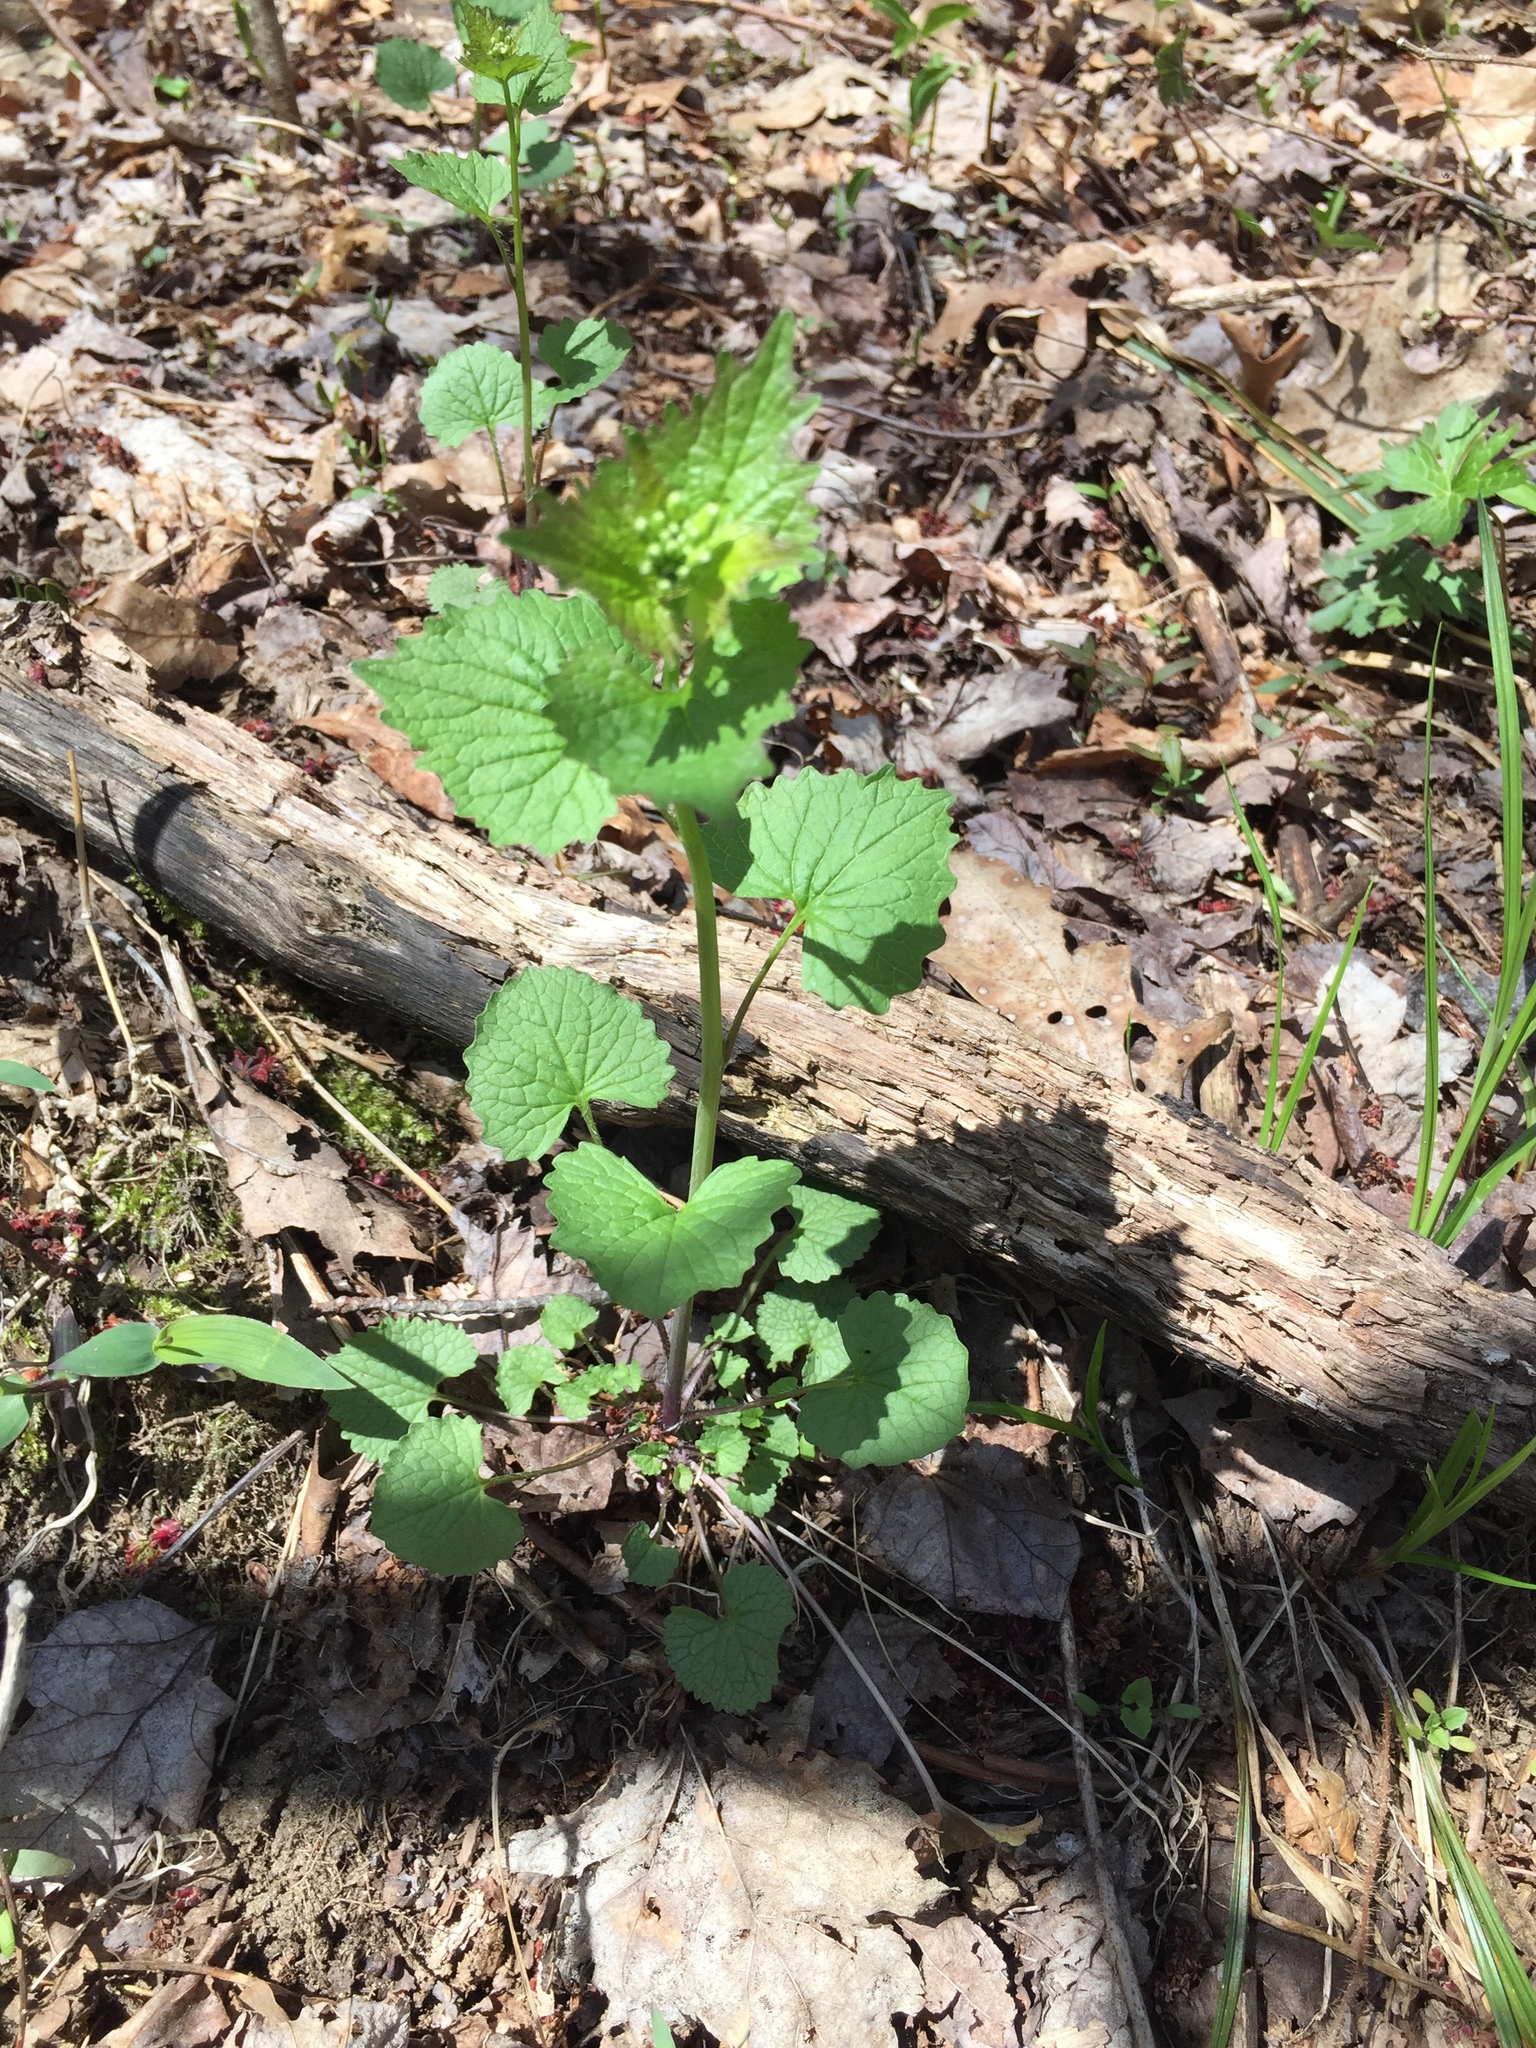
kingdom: Plantae
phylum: Tracheophyta
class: Magnoliopsida
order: Brassicales
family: Brassicaceae
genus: Alliaria
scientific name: Alliaria petiolata
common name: Garlic mustard
